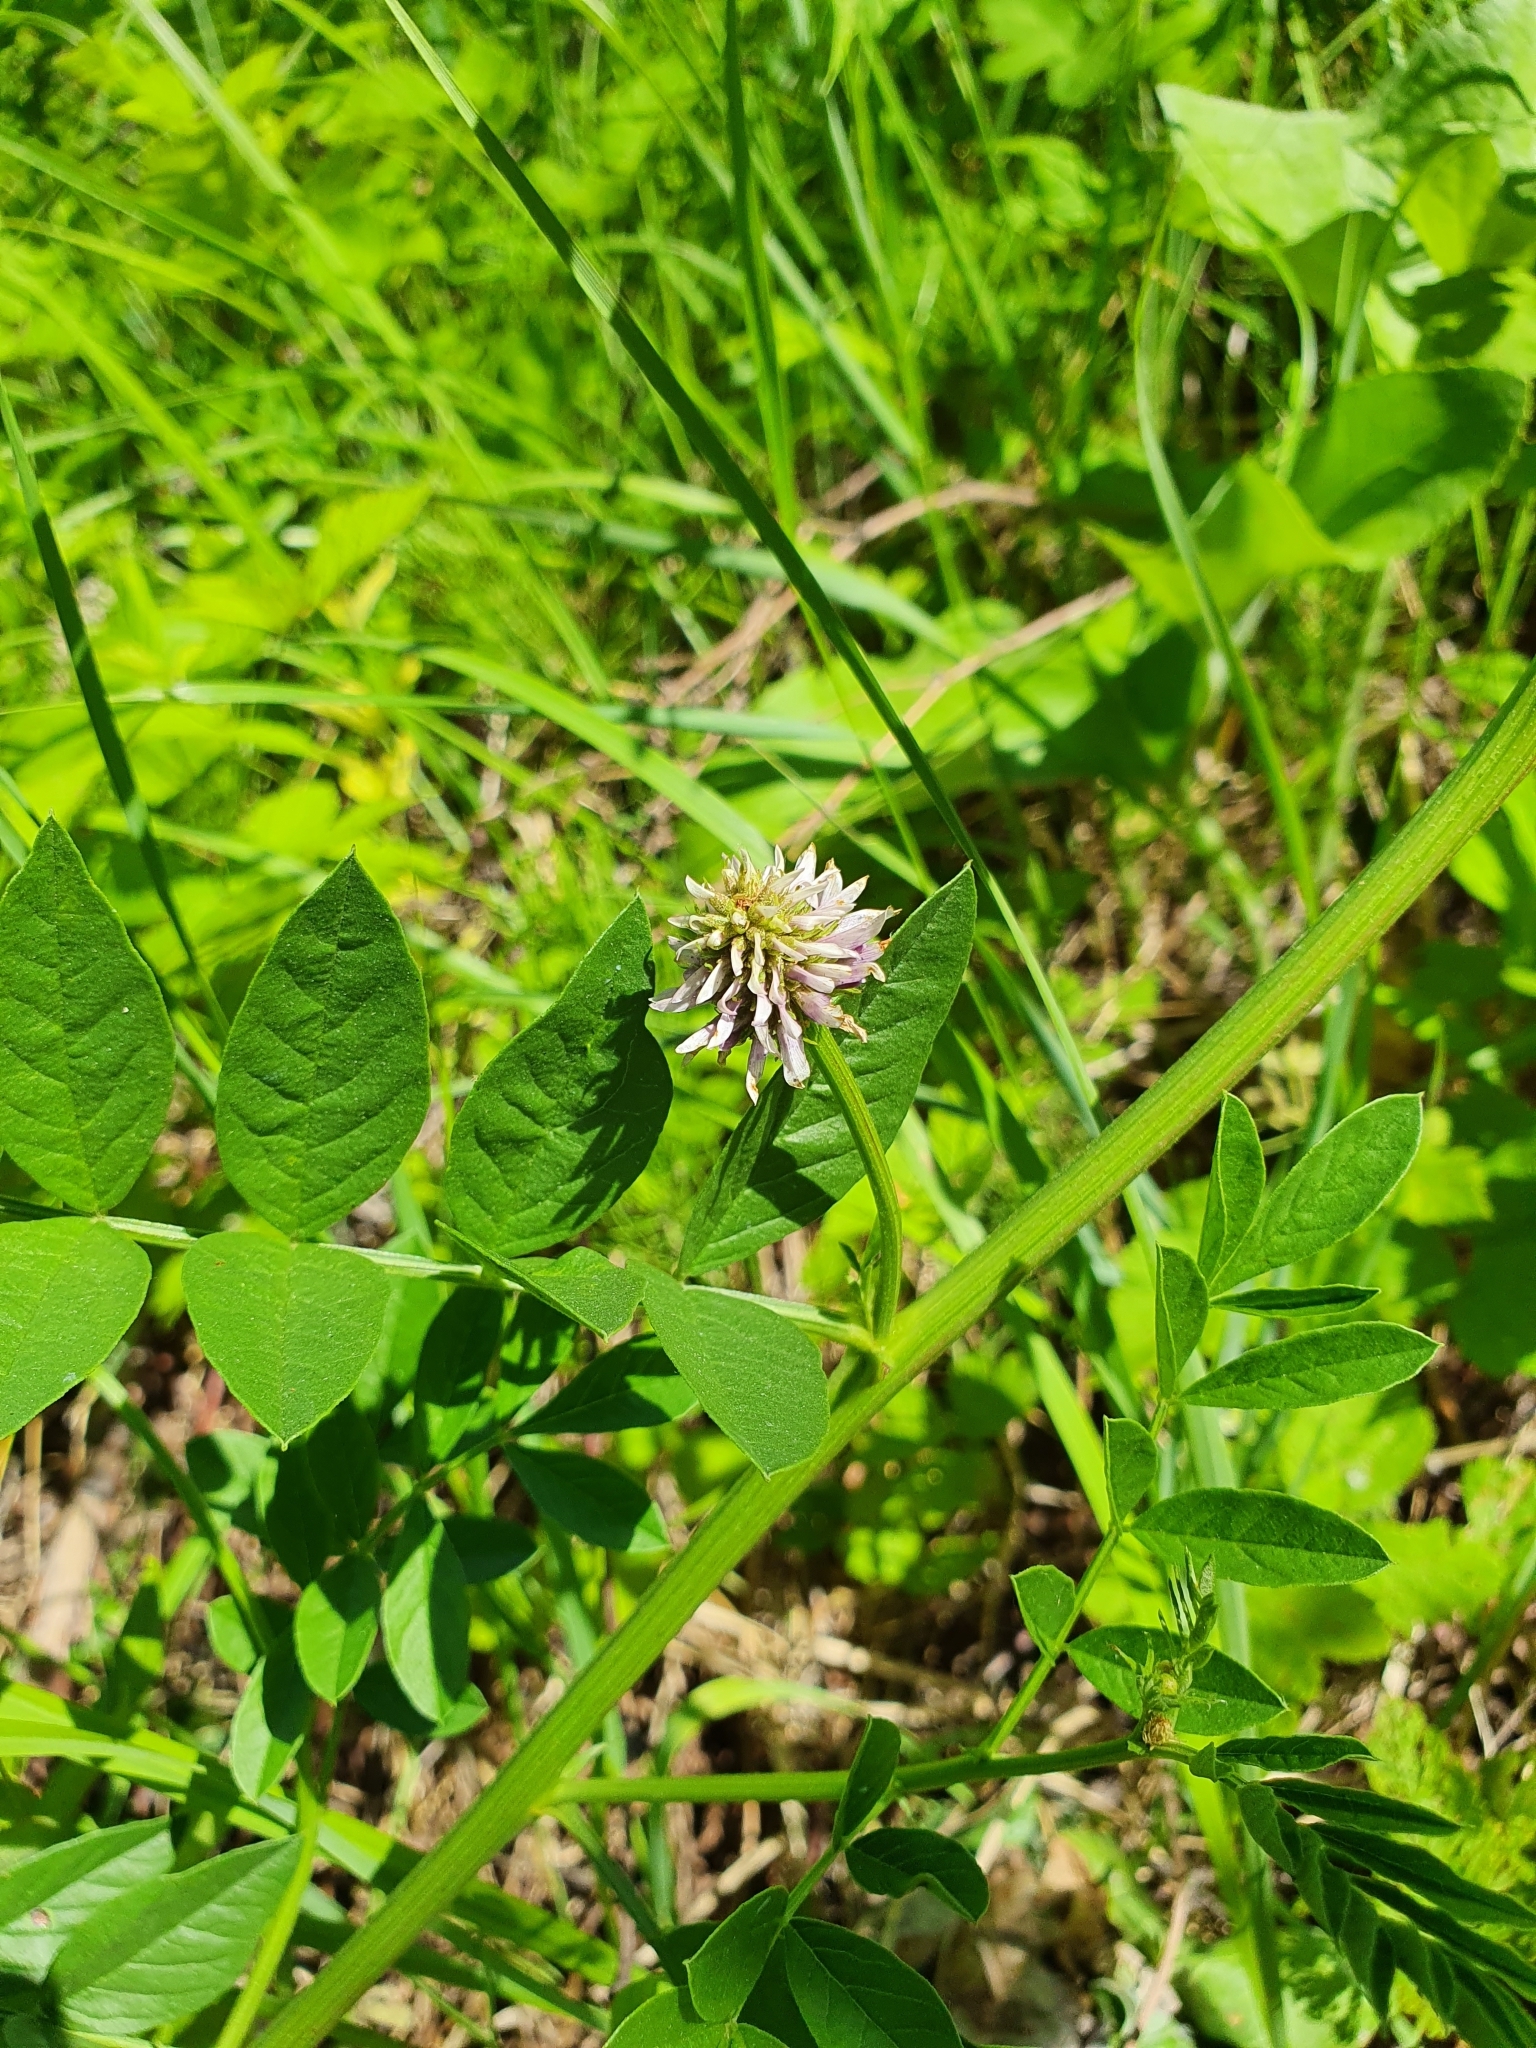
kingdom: Plantae
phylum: Tracheophyta
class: Magnoliopsida
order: Fabales
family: Fabaceae
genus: Glycyrrhiza
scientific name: Glycyrrhiza echinata
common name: German liquorice
